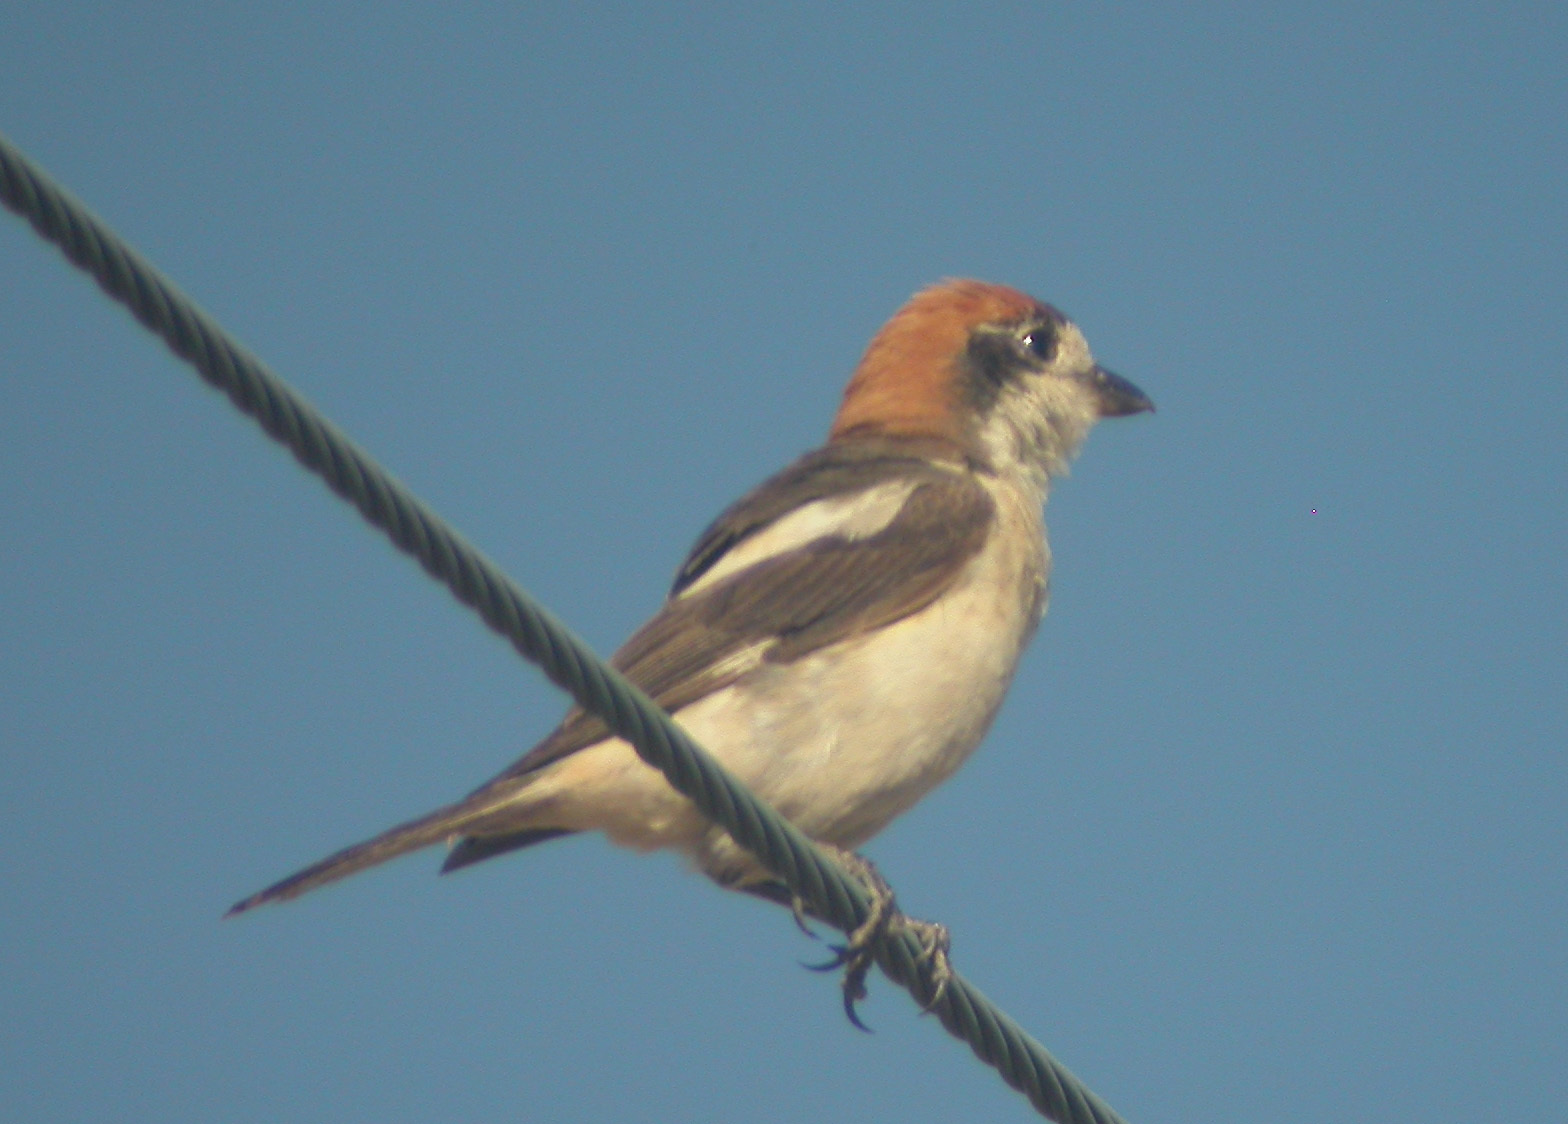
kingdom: Animalia
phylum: Chordata
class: Aves
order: Passeriformes
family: Laniidae
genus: Lanius
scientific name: Lanius senator
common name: Woodchat shrike
